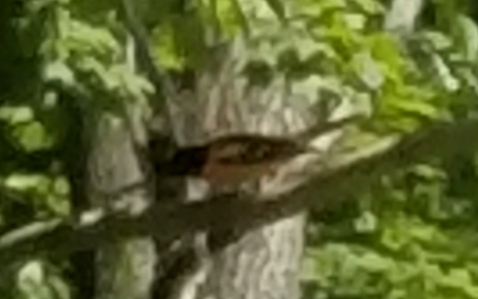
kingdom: Animalia
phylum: Chordata
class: Aves
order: Passeriformes
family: Icteridae
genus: Icterus
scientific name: Icterus galbula
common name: Baltimore oriole
